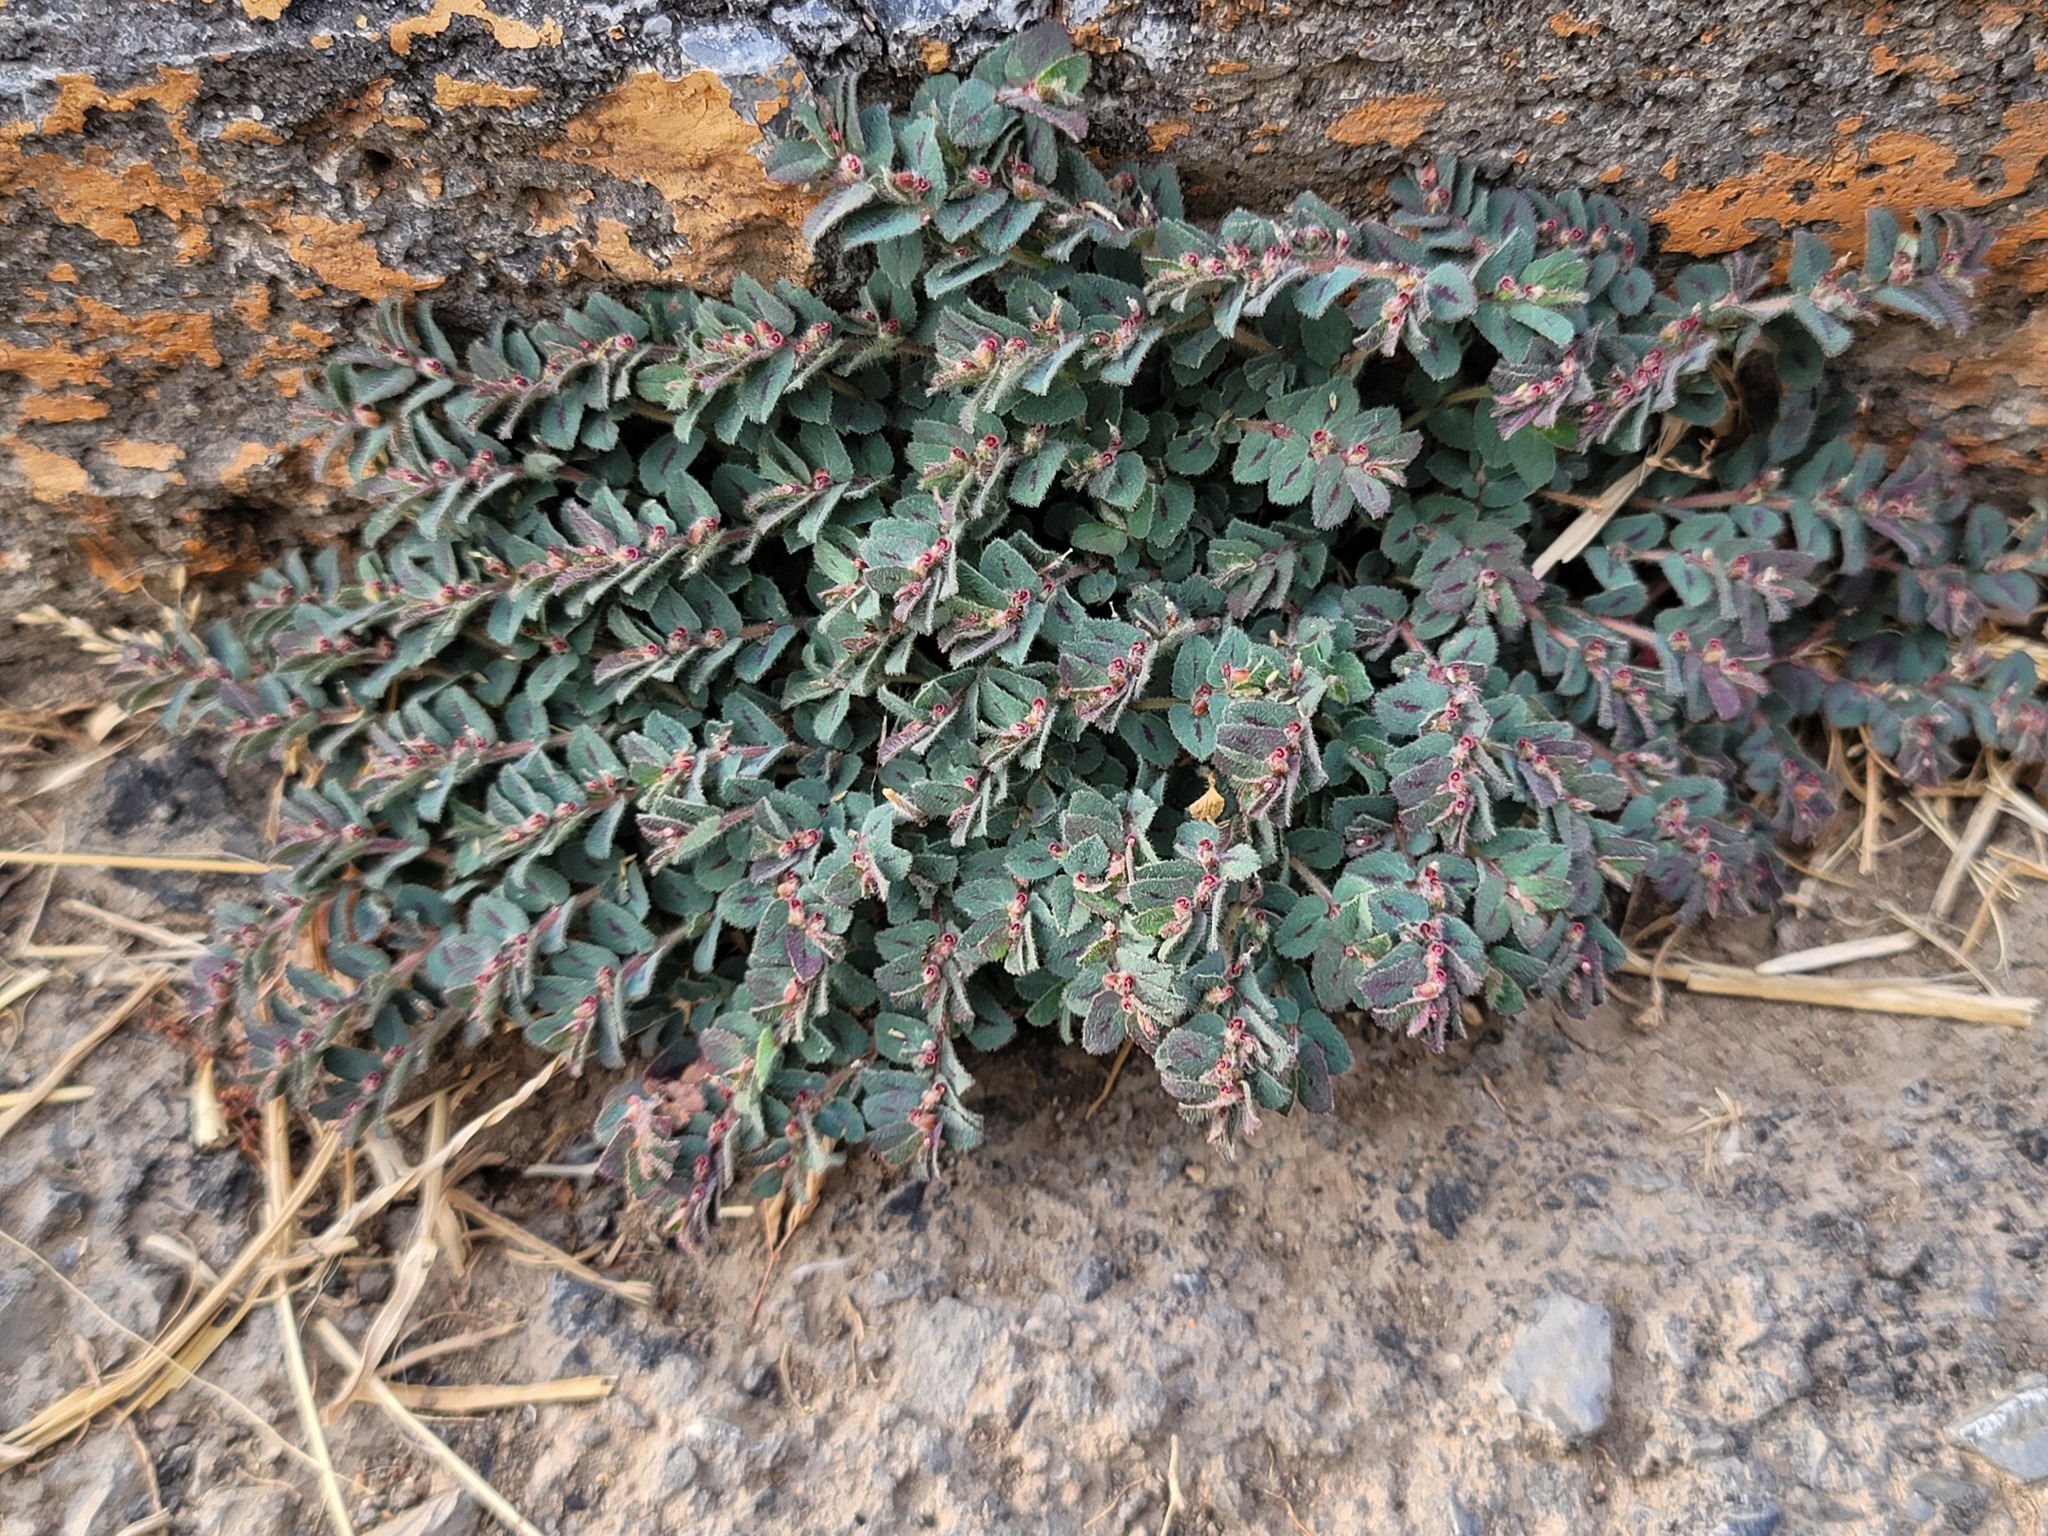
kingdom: Plantae
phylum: Tracheophyta
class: Magnoliopsida
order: Malpighiales
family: Euphorbiaceae
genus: Euphorbia
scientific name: Euphorbia velleriflora
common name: Caliche sandmat
